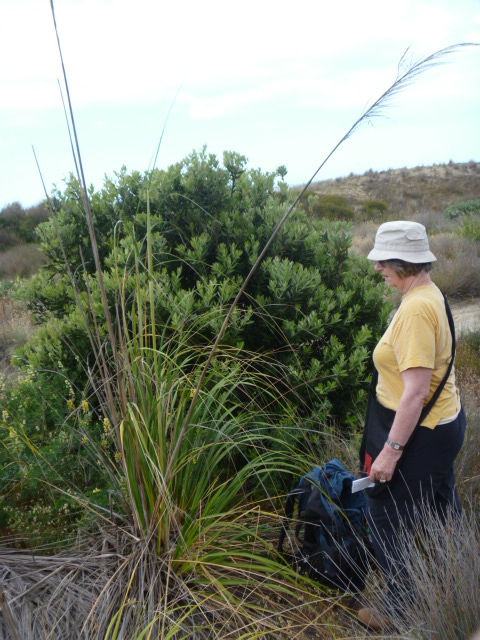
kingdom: Plantae
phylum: Tracheophyta
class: Liliopsida
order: Poales
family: Poaceae
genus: Austroderia
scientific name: Austroderia splendens
